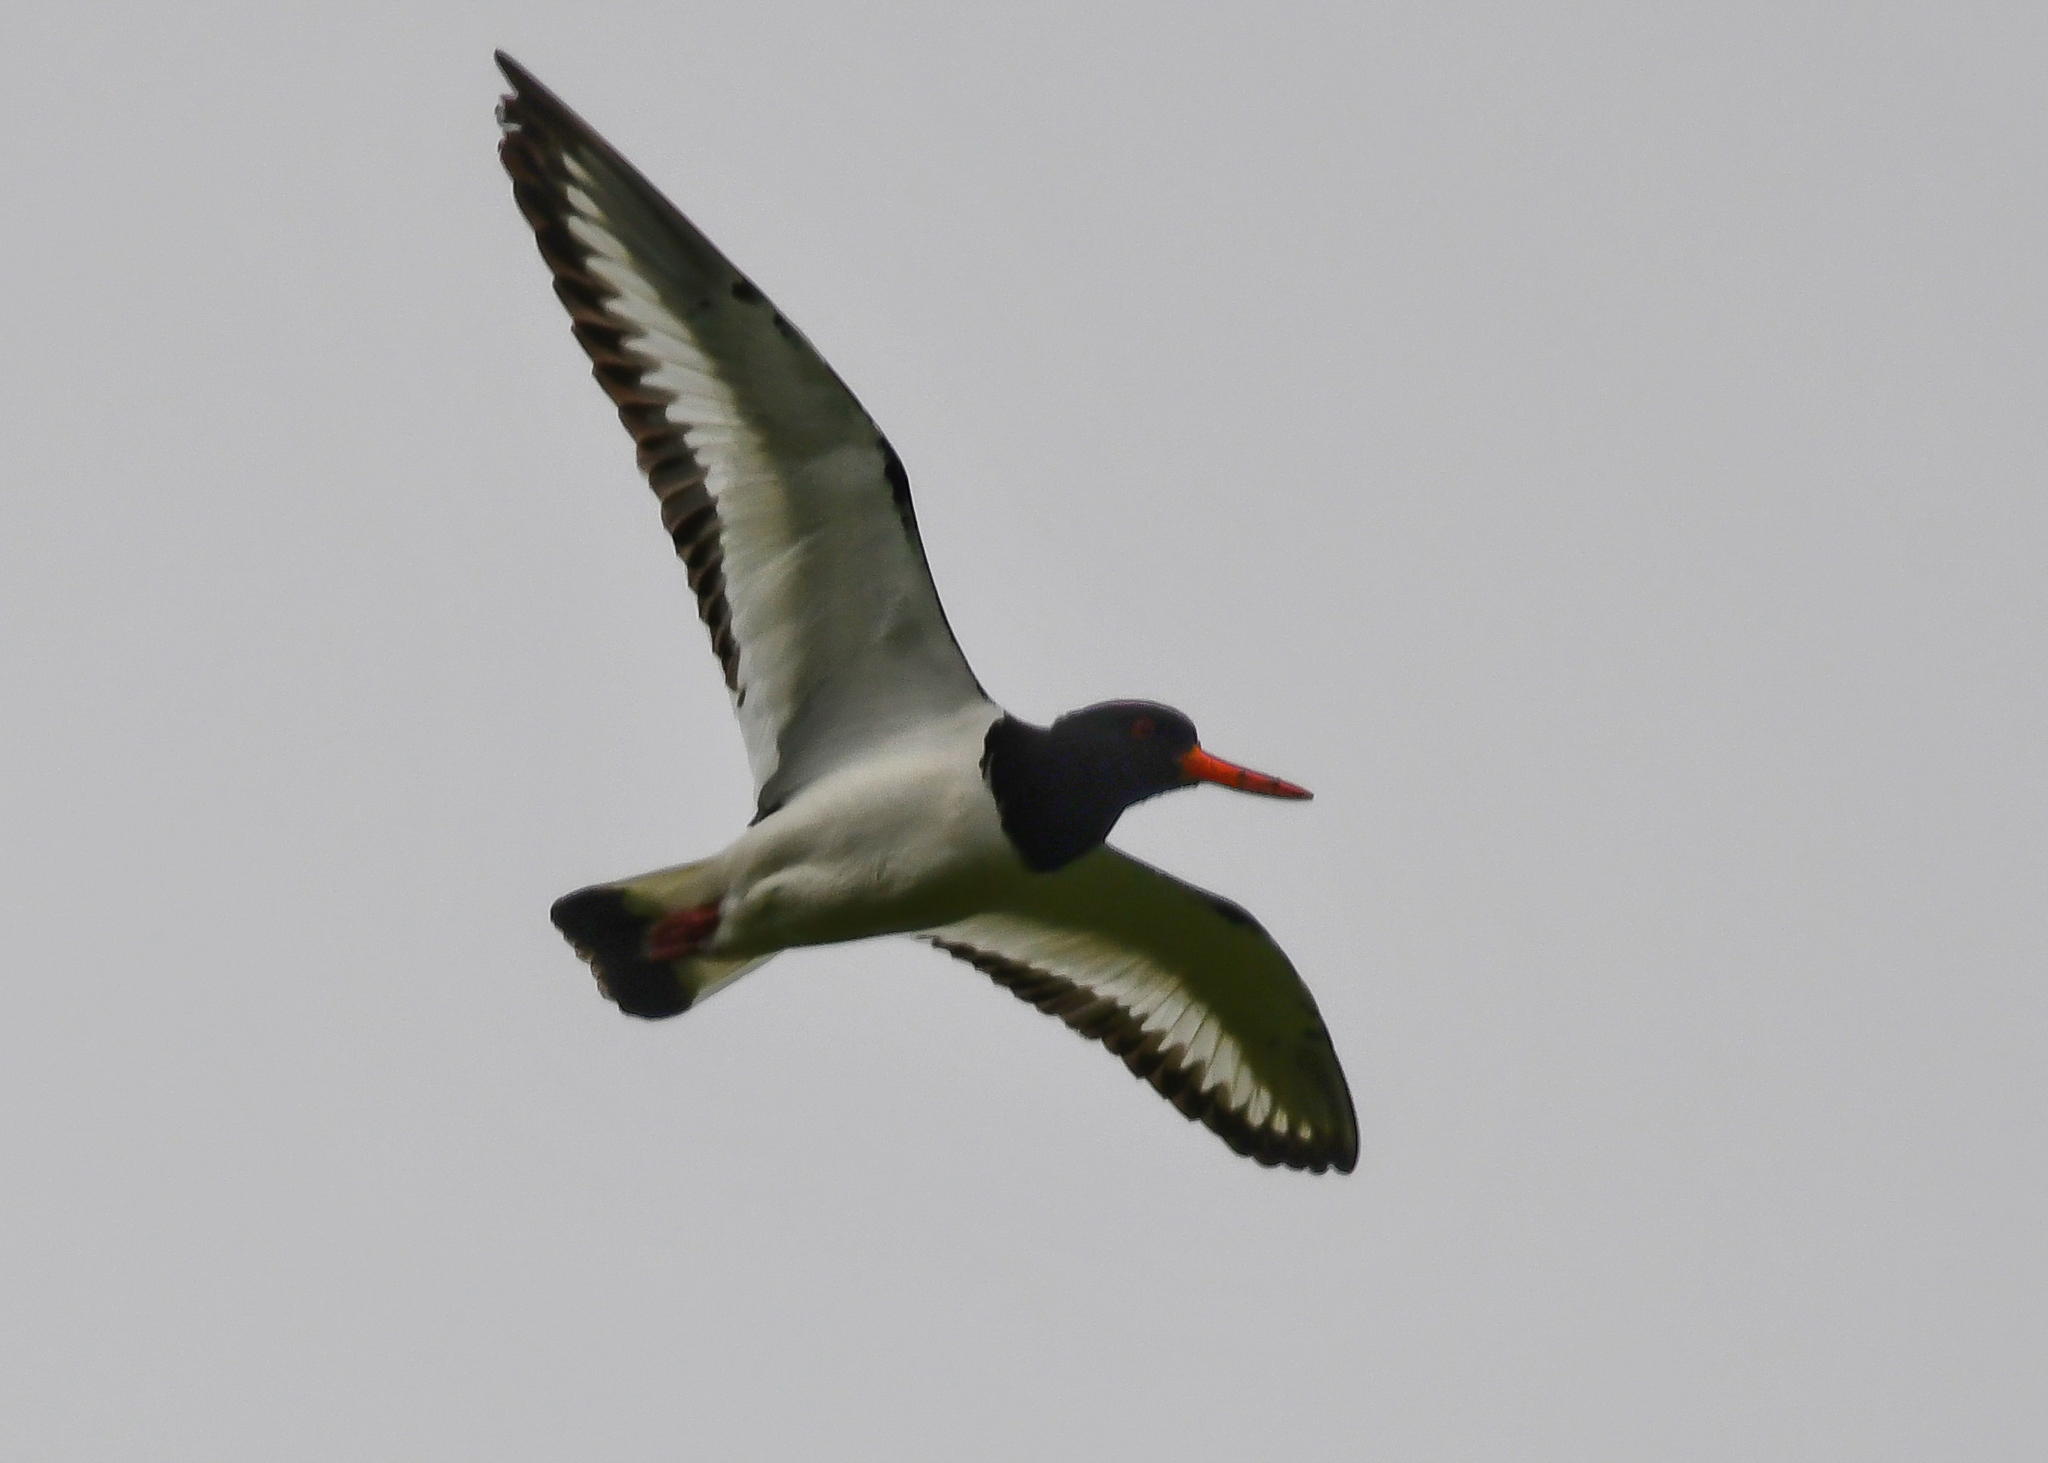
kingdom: Animalia
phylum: Chordata
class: Aves
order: Charadriiformes
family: Haematopodidae
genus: Haematopus
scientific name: Haematopus ostralegus
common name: Eurasian oystercatcher
